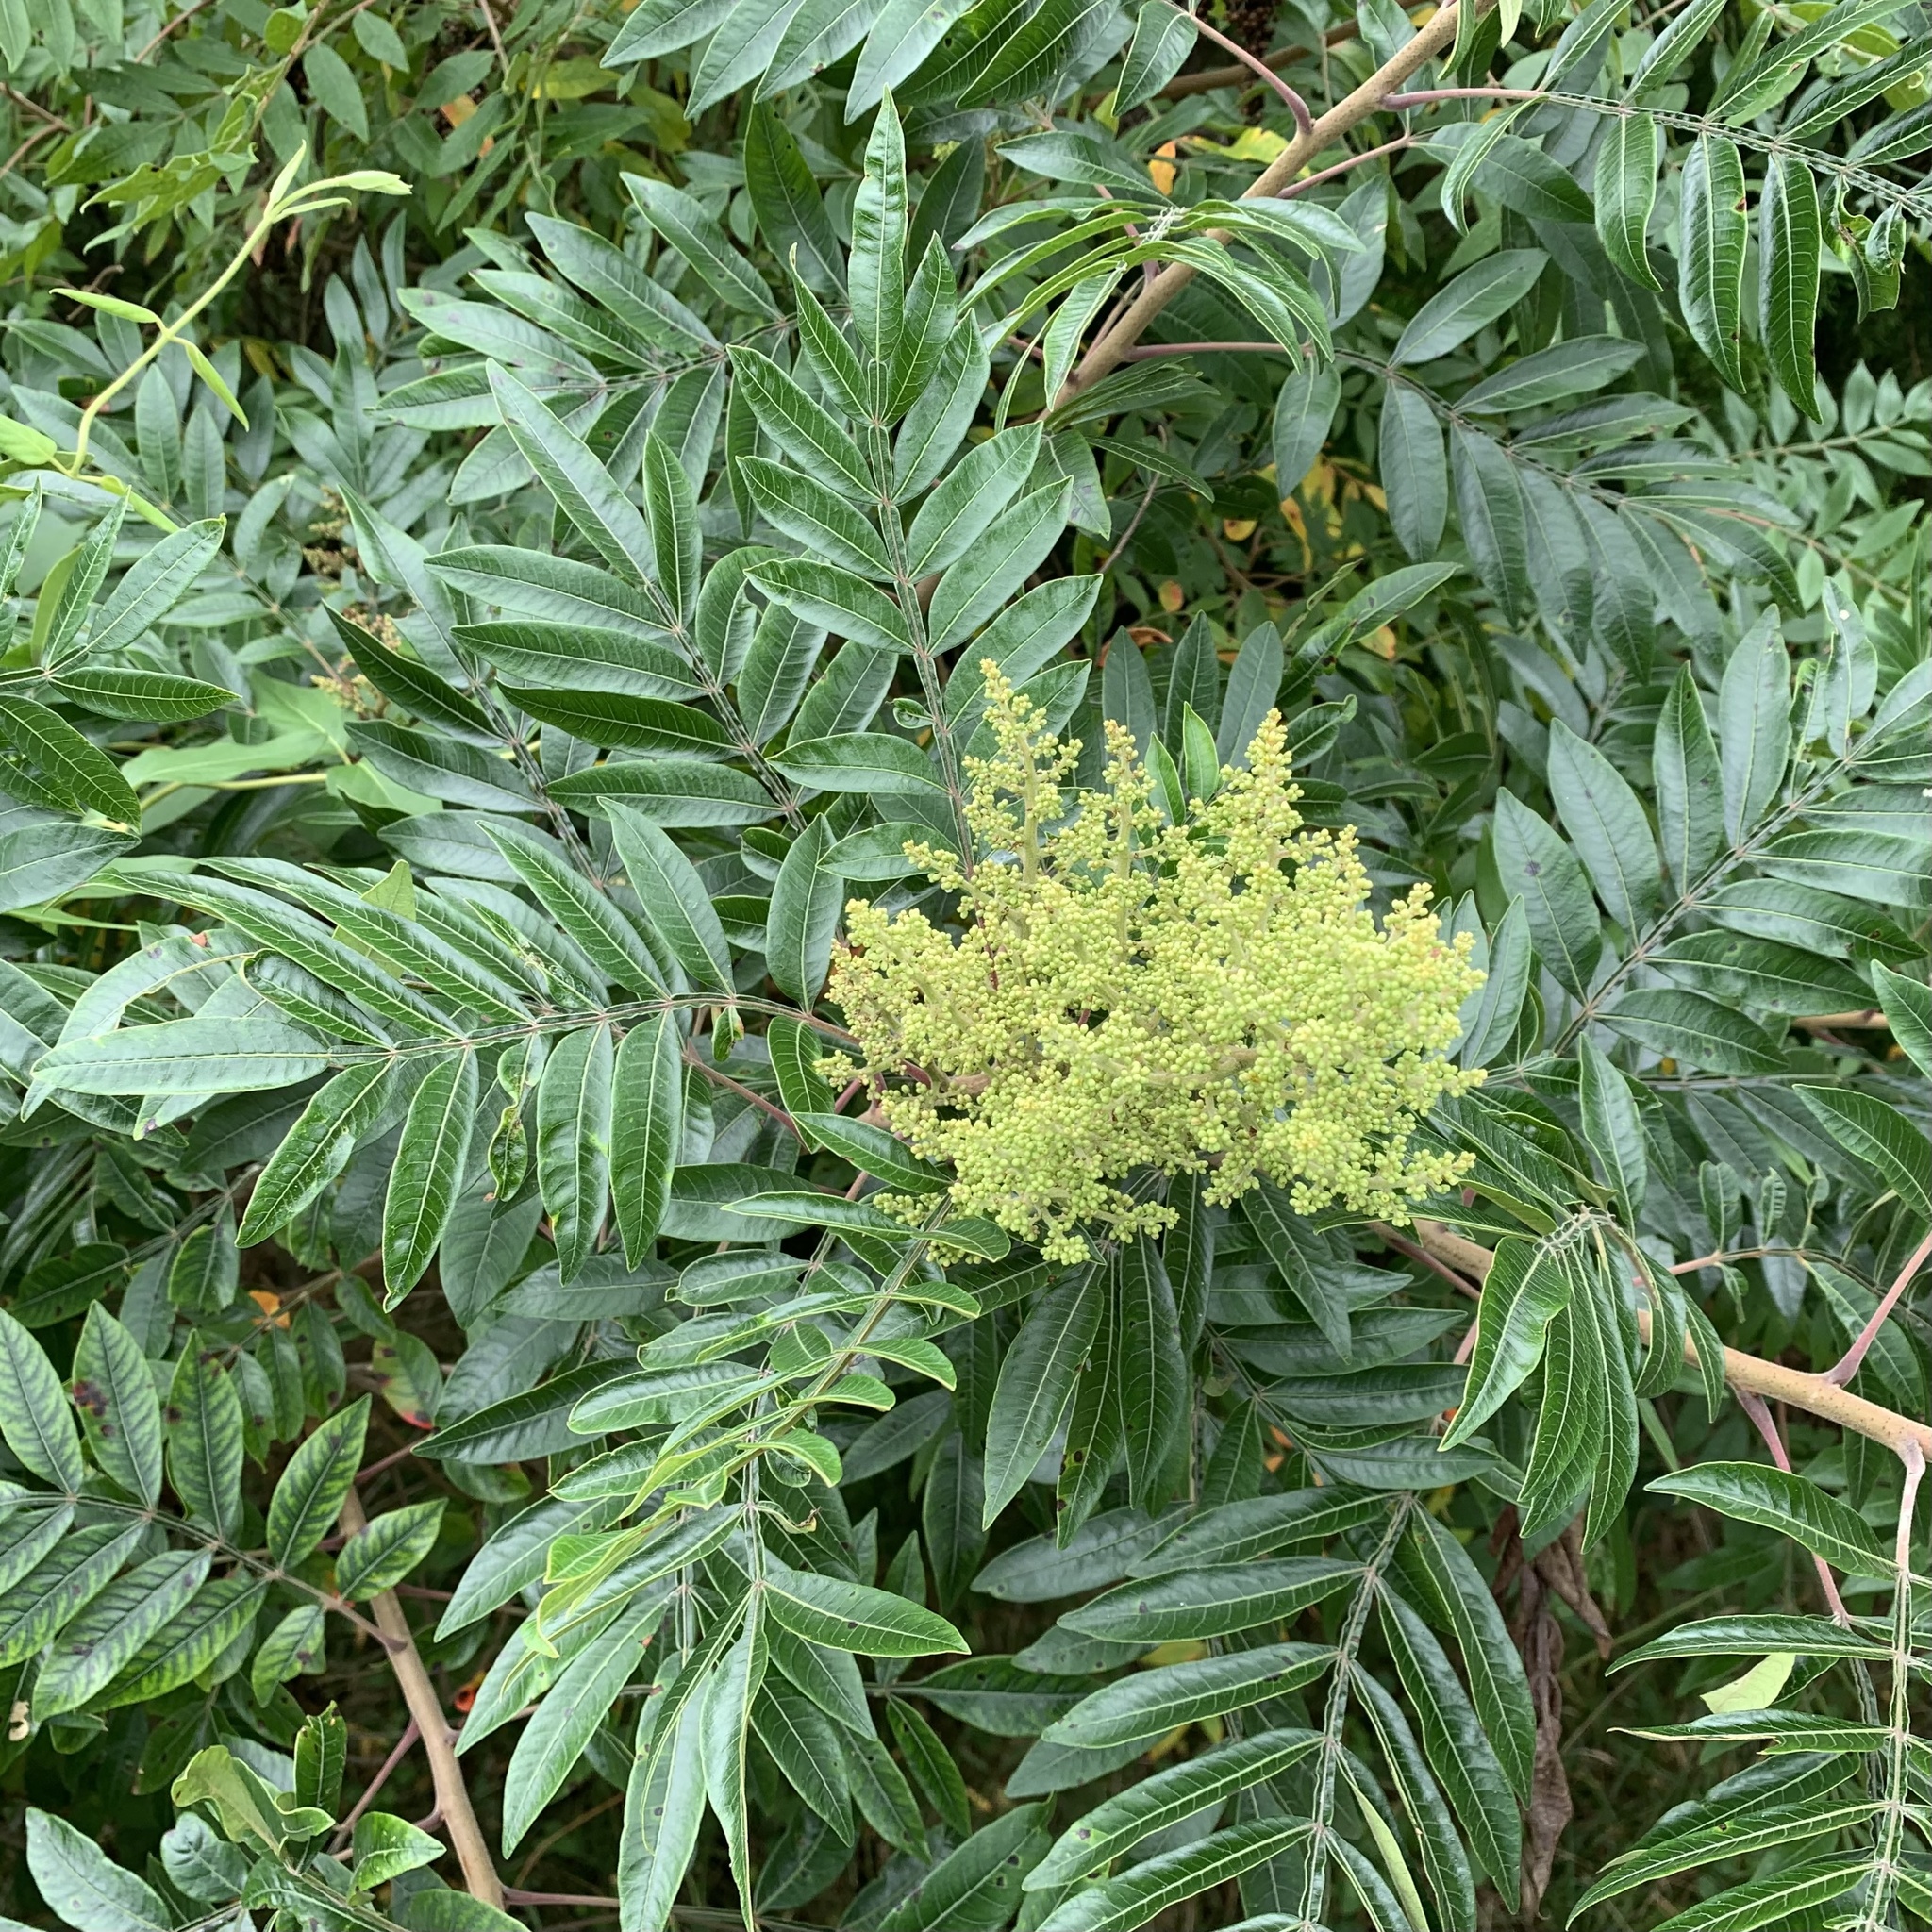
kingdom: Plantae
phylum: Tracheophyta
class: Magnoliopsida
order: Sapindales
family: Anacardiaceae
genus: Rhus
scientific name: Rhus copallina
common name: Shining sumac
